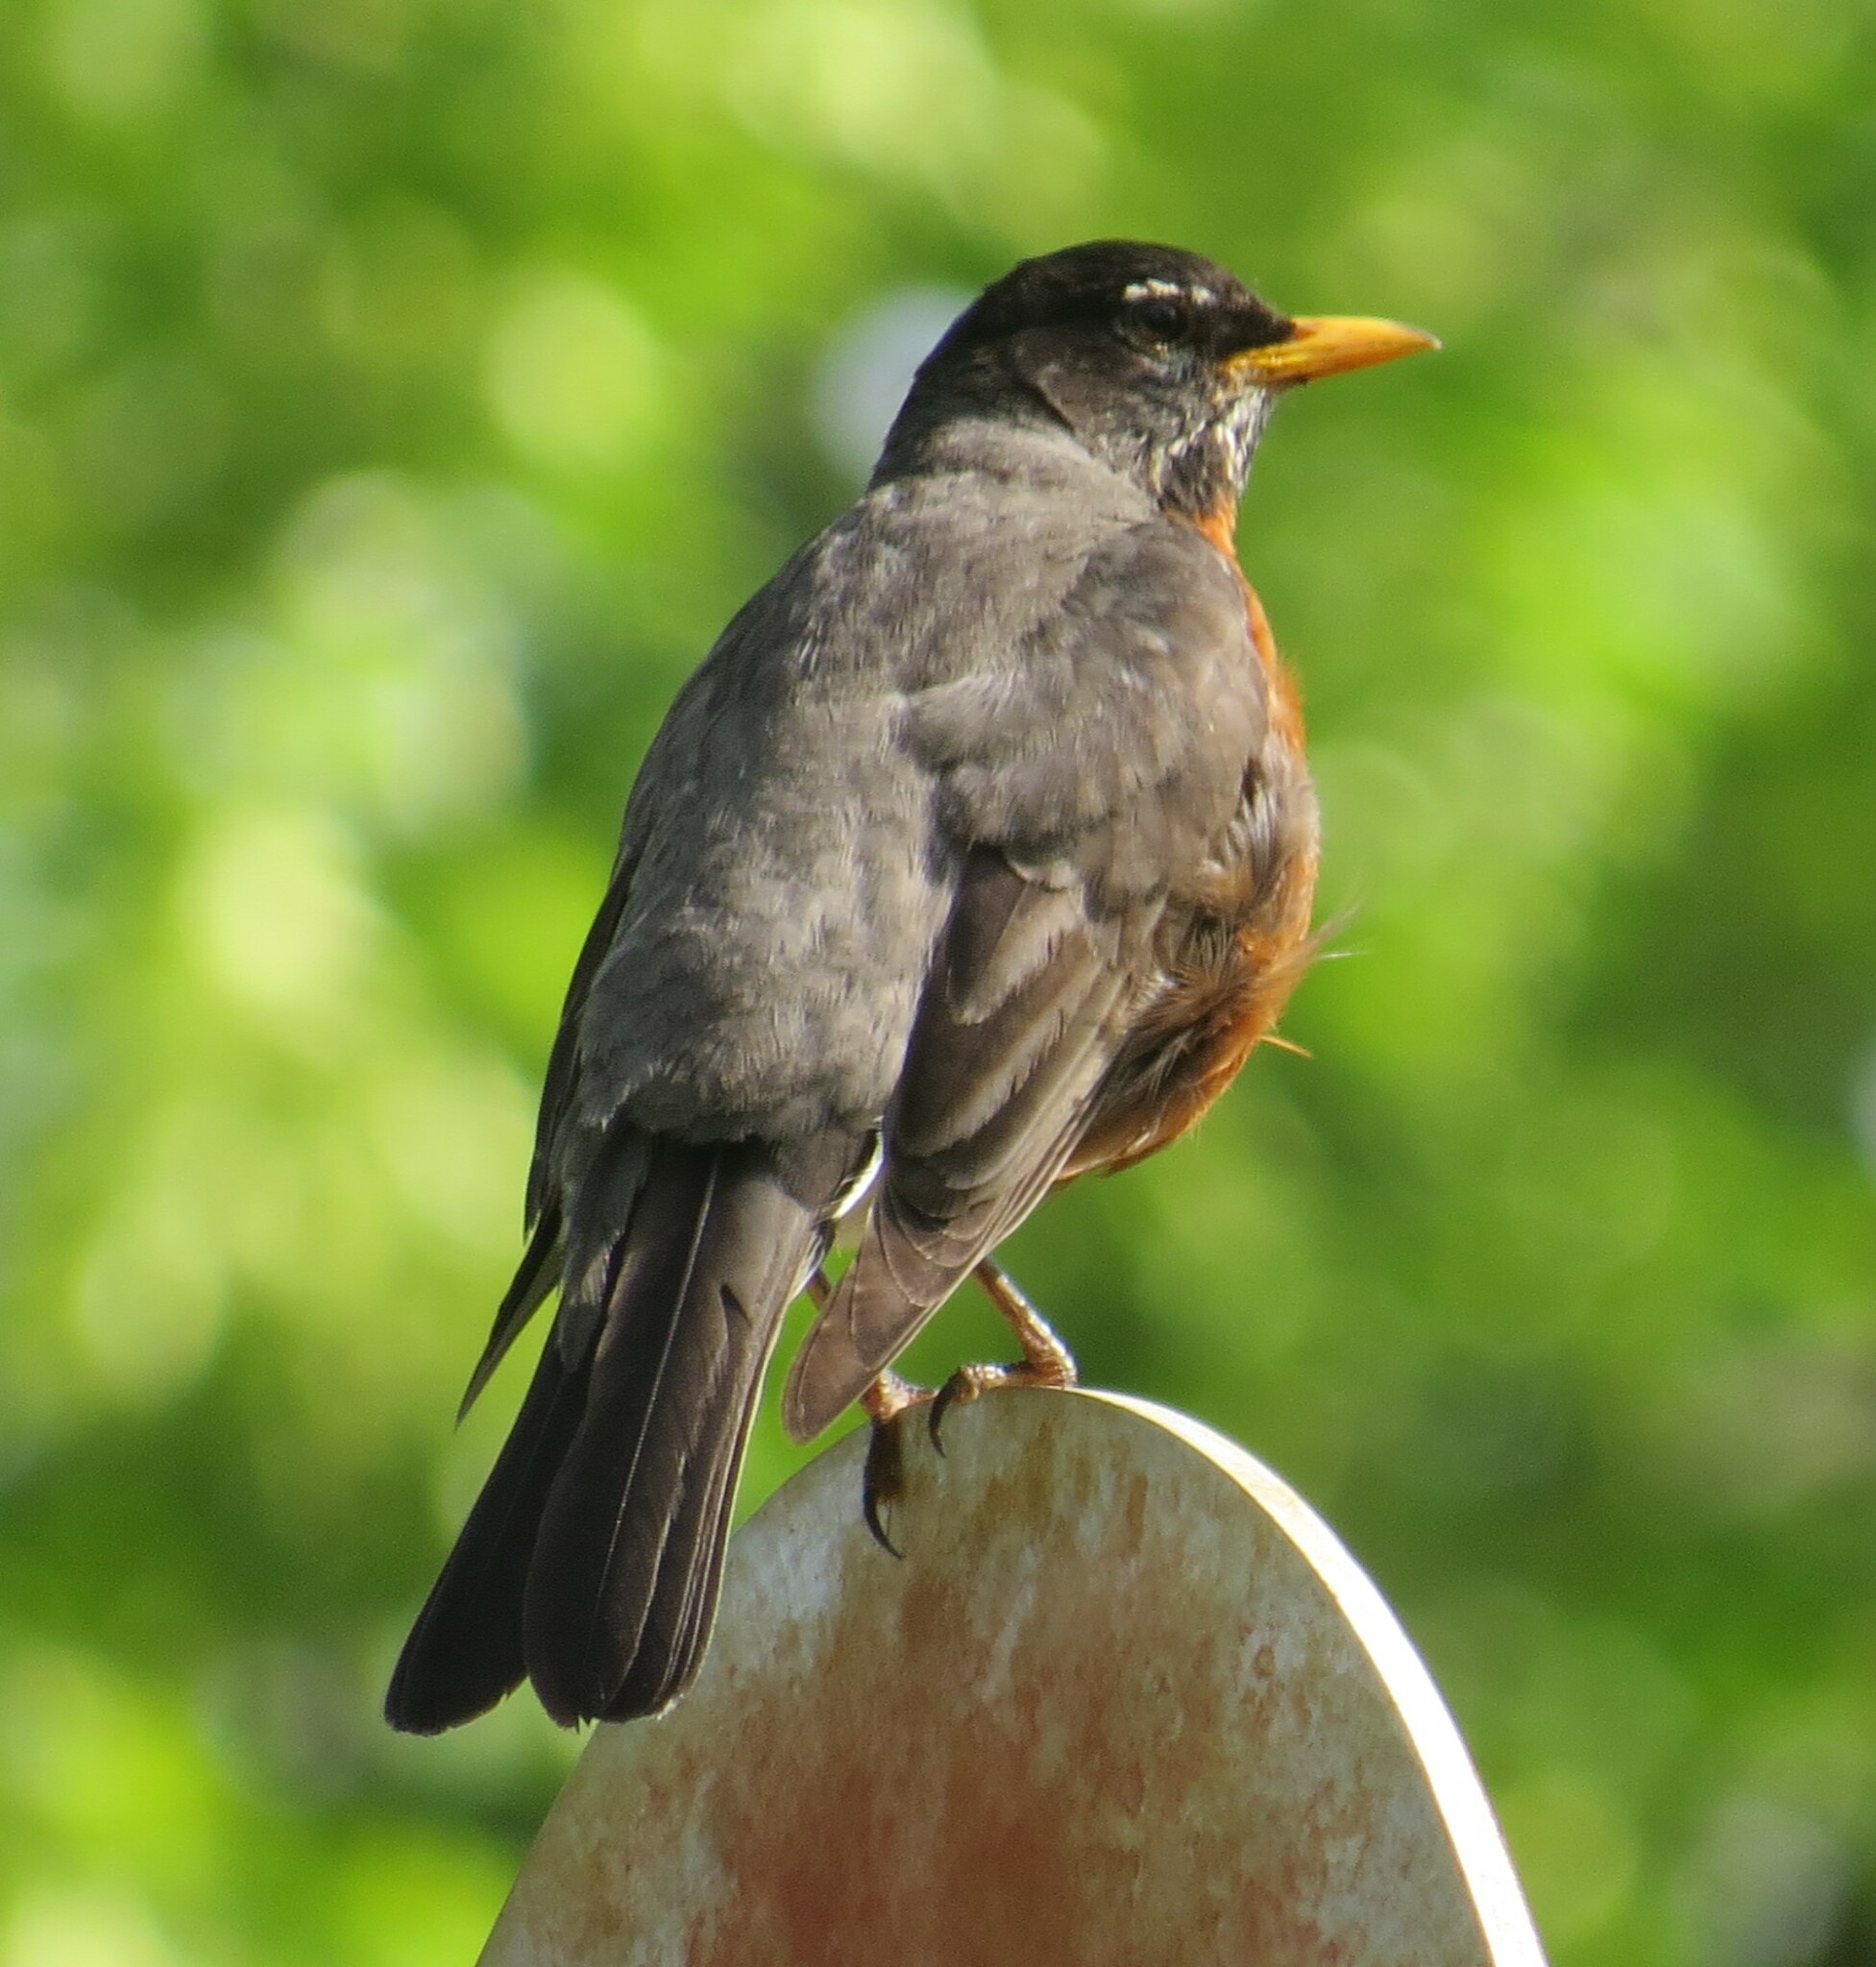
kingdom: Animalia
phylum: Chordata
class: Aves
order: Passeriformes
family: Turdidae
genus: Turdus
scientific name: Turdus migratorius
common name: American robin
